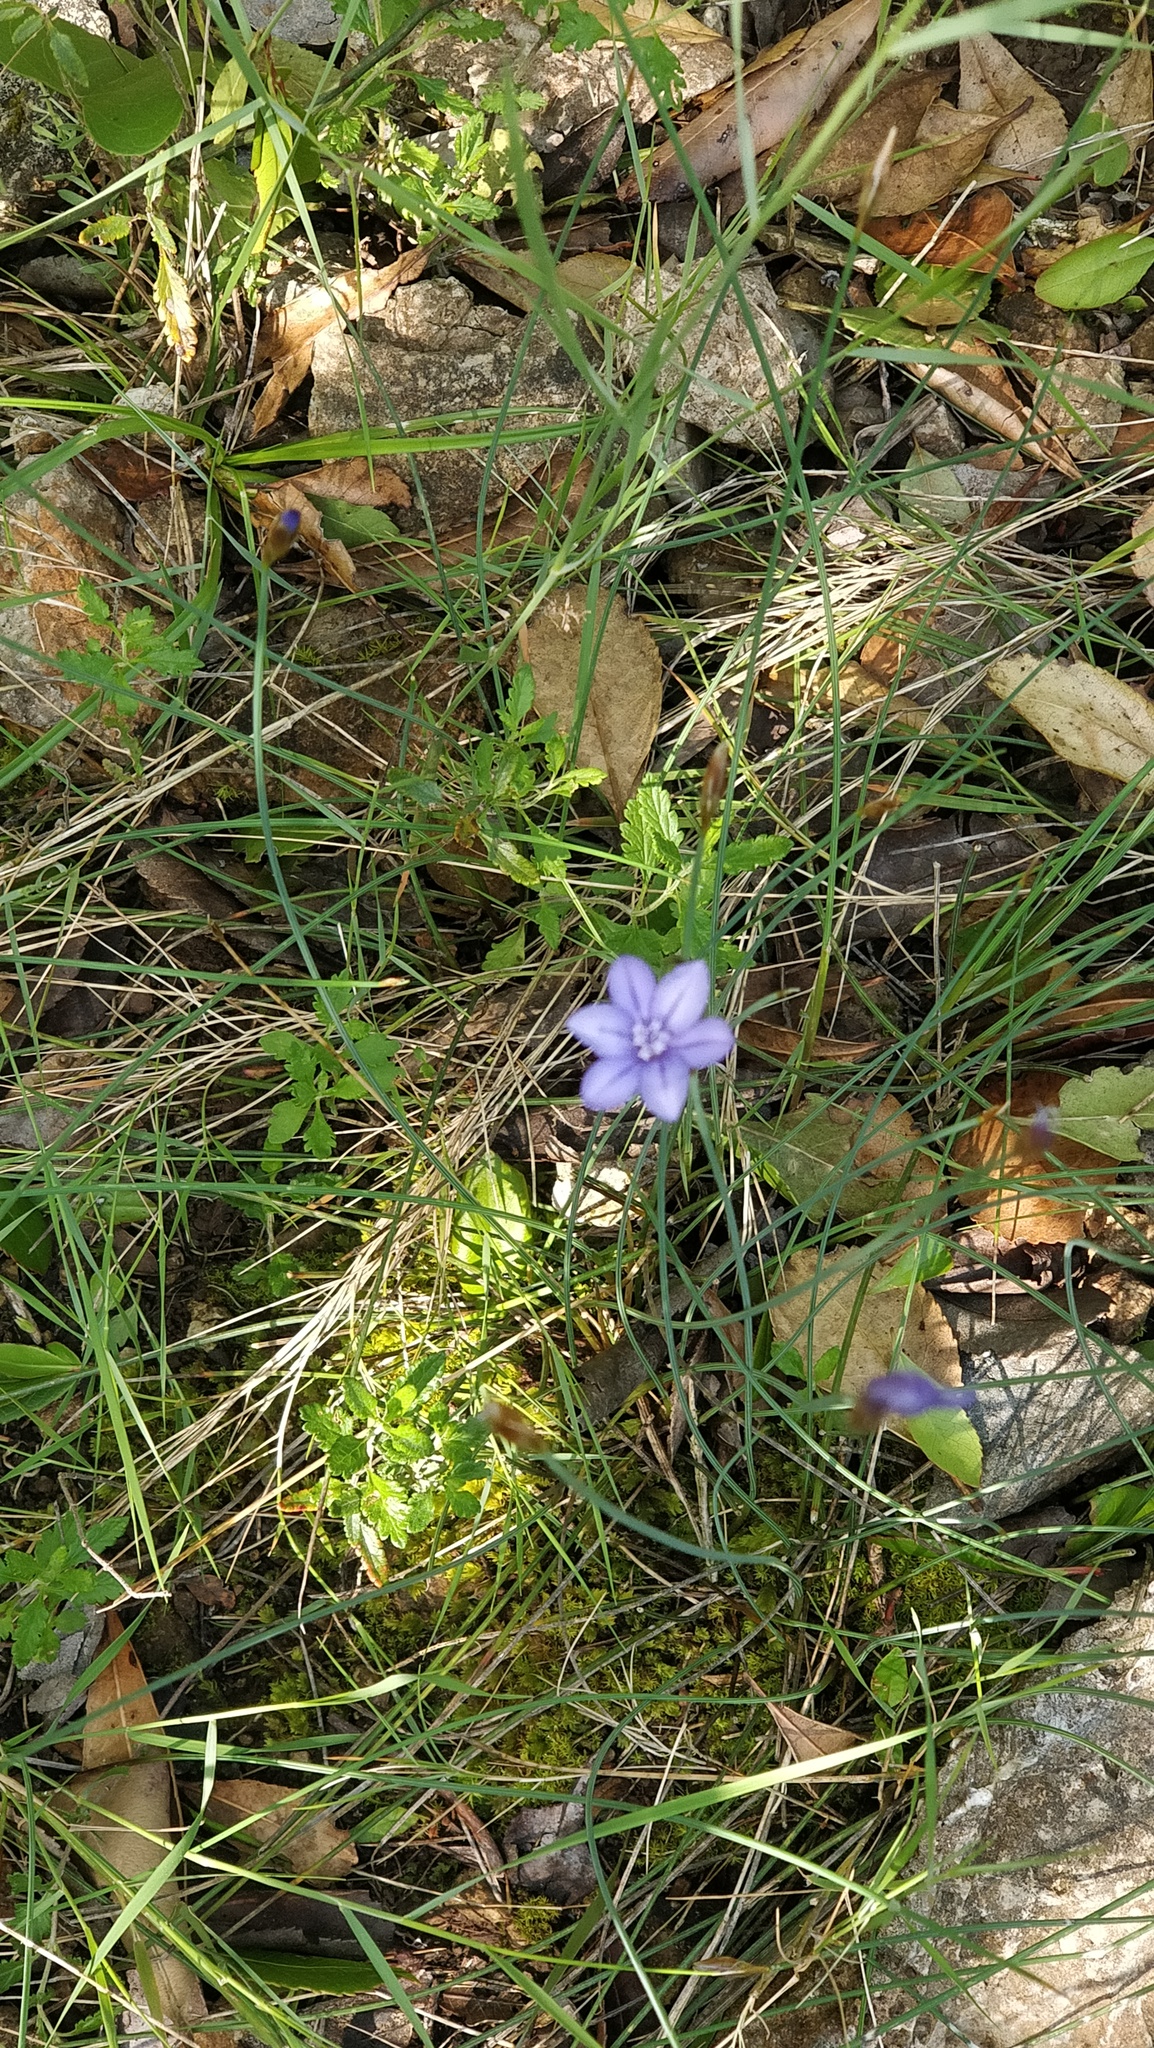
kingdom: Plantae
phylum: Tracheophyta
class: Liliopsida
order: Asparagales
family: Asparagaceae
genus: Aphyllanthes
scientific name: Aphyllanthes monspeliensis
